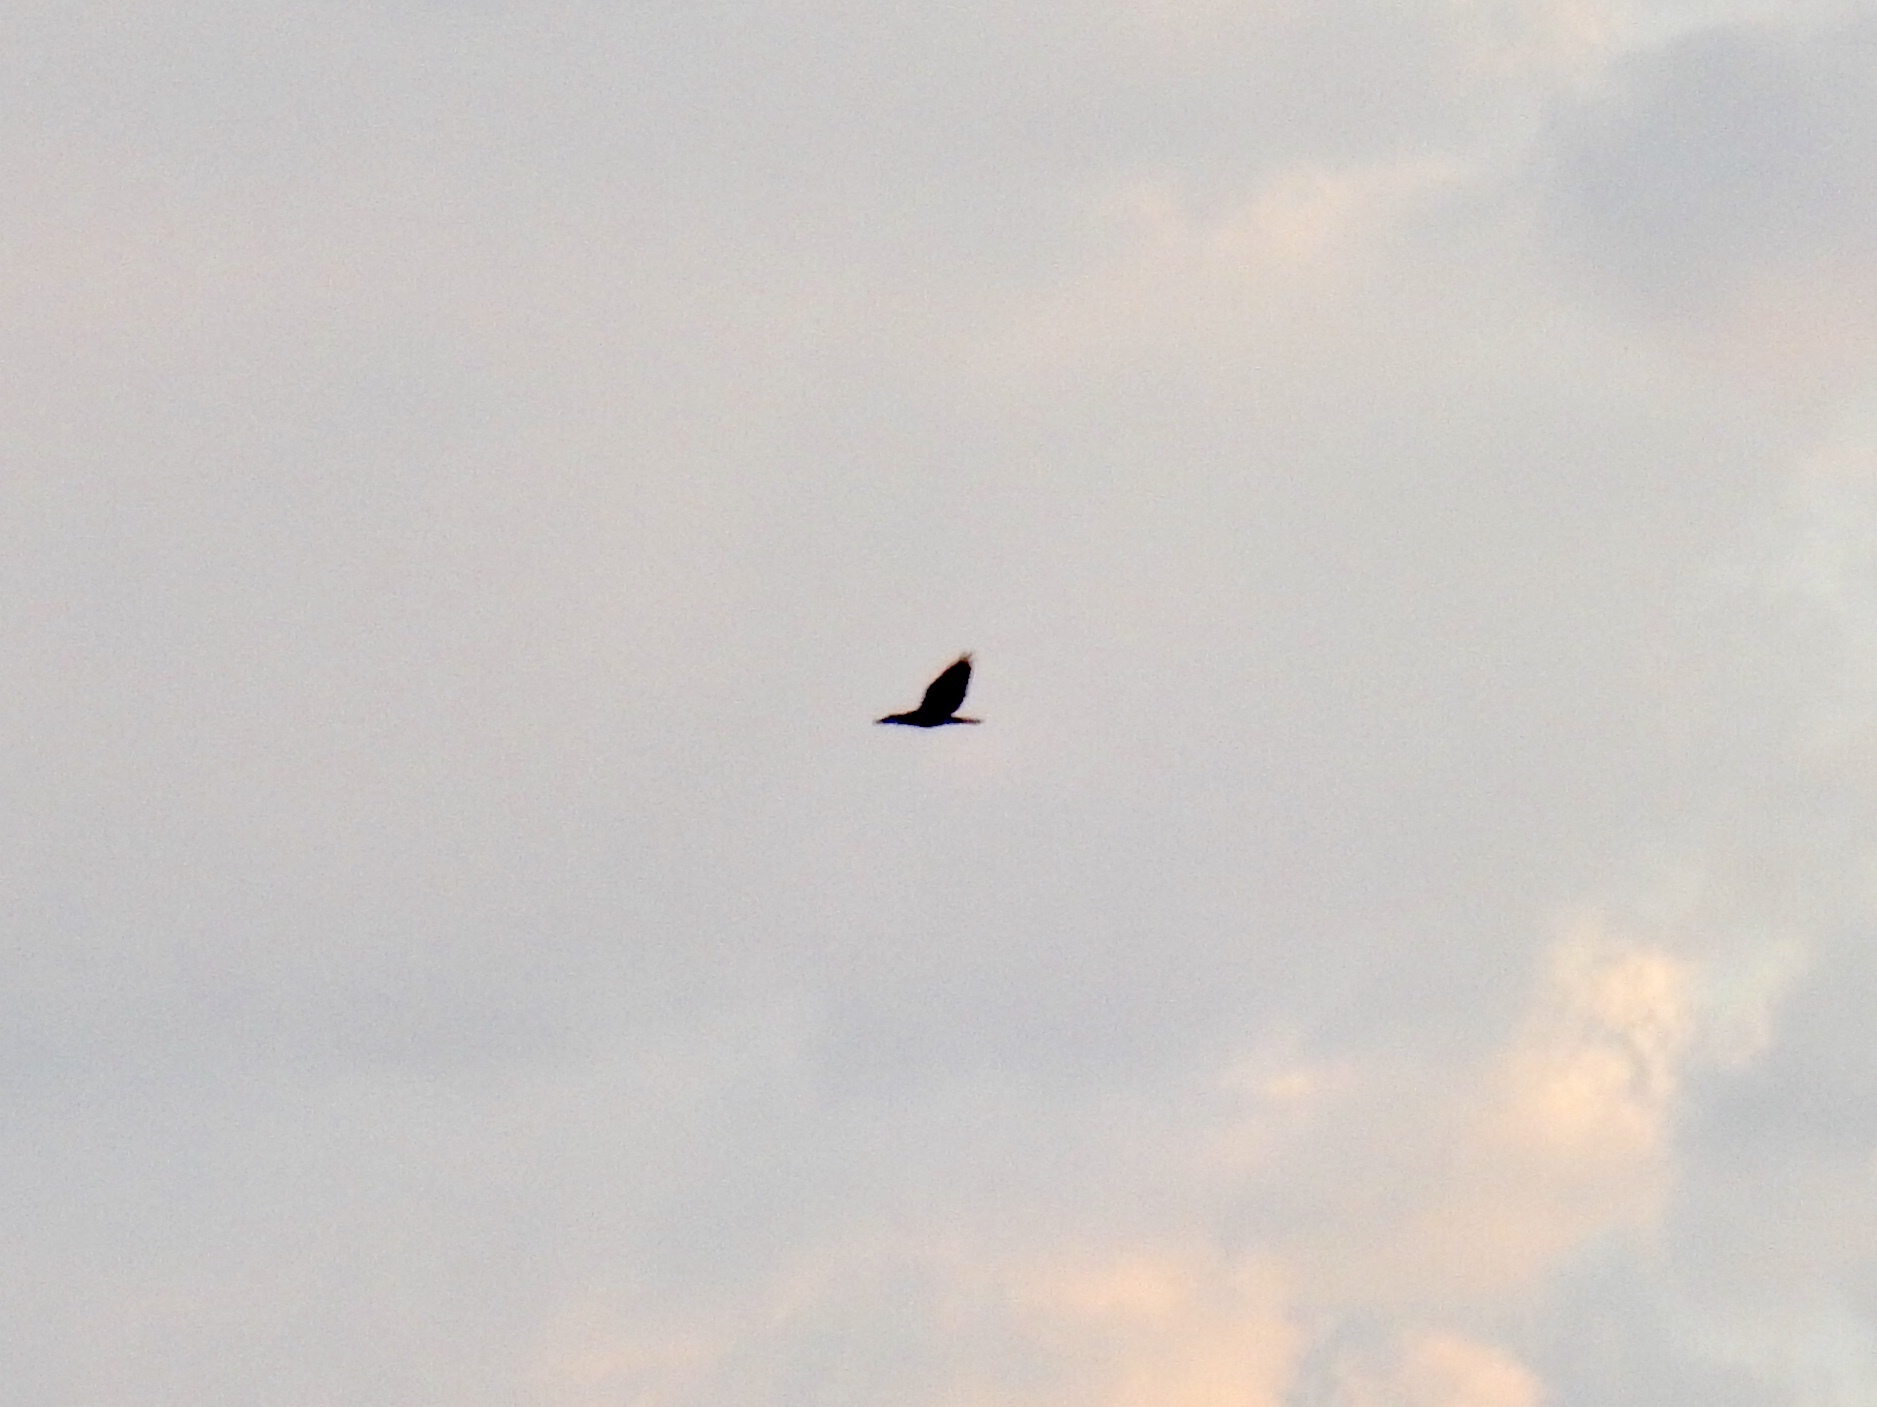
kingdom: Animalia
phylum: Chordata
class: Aves
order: Accipitriformes
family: Accipitridae
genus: Buteo
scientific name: Buteo swainsoni
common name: Swainson's hawk
